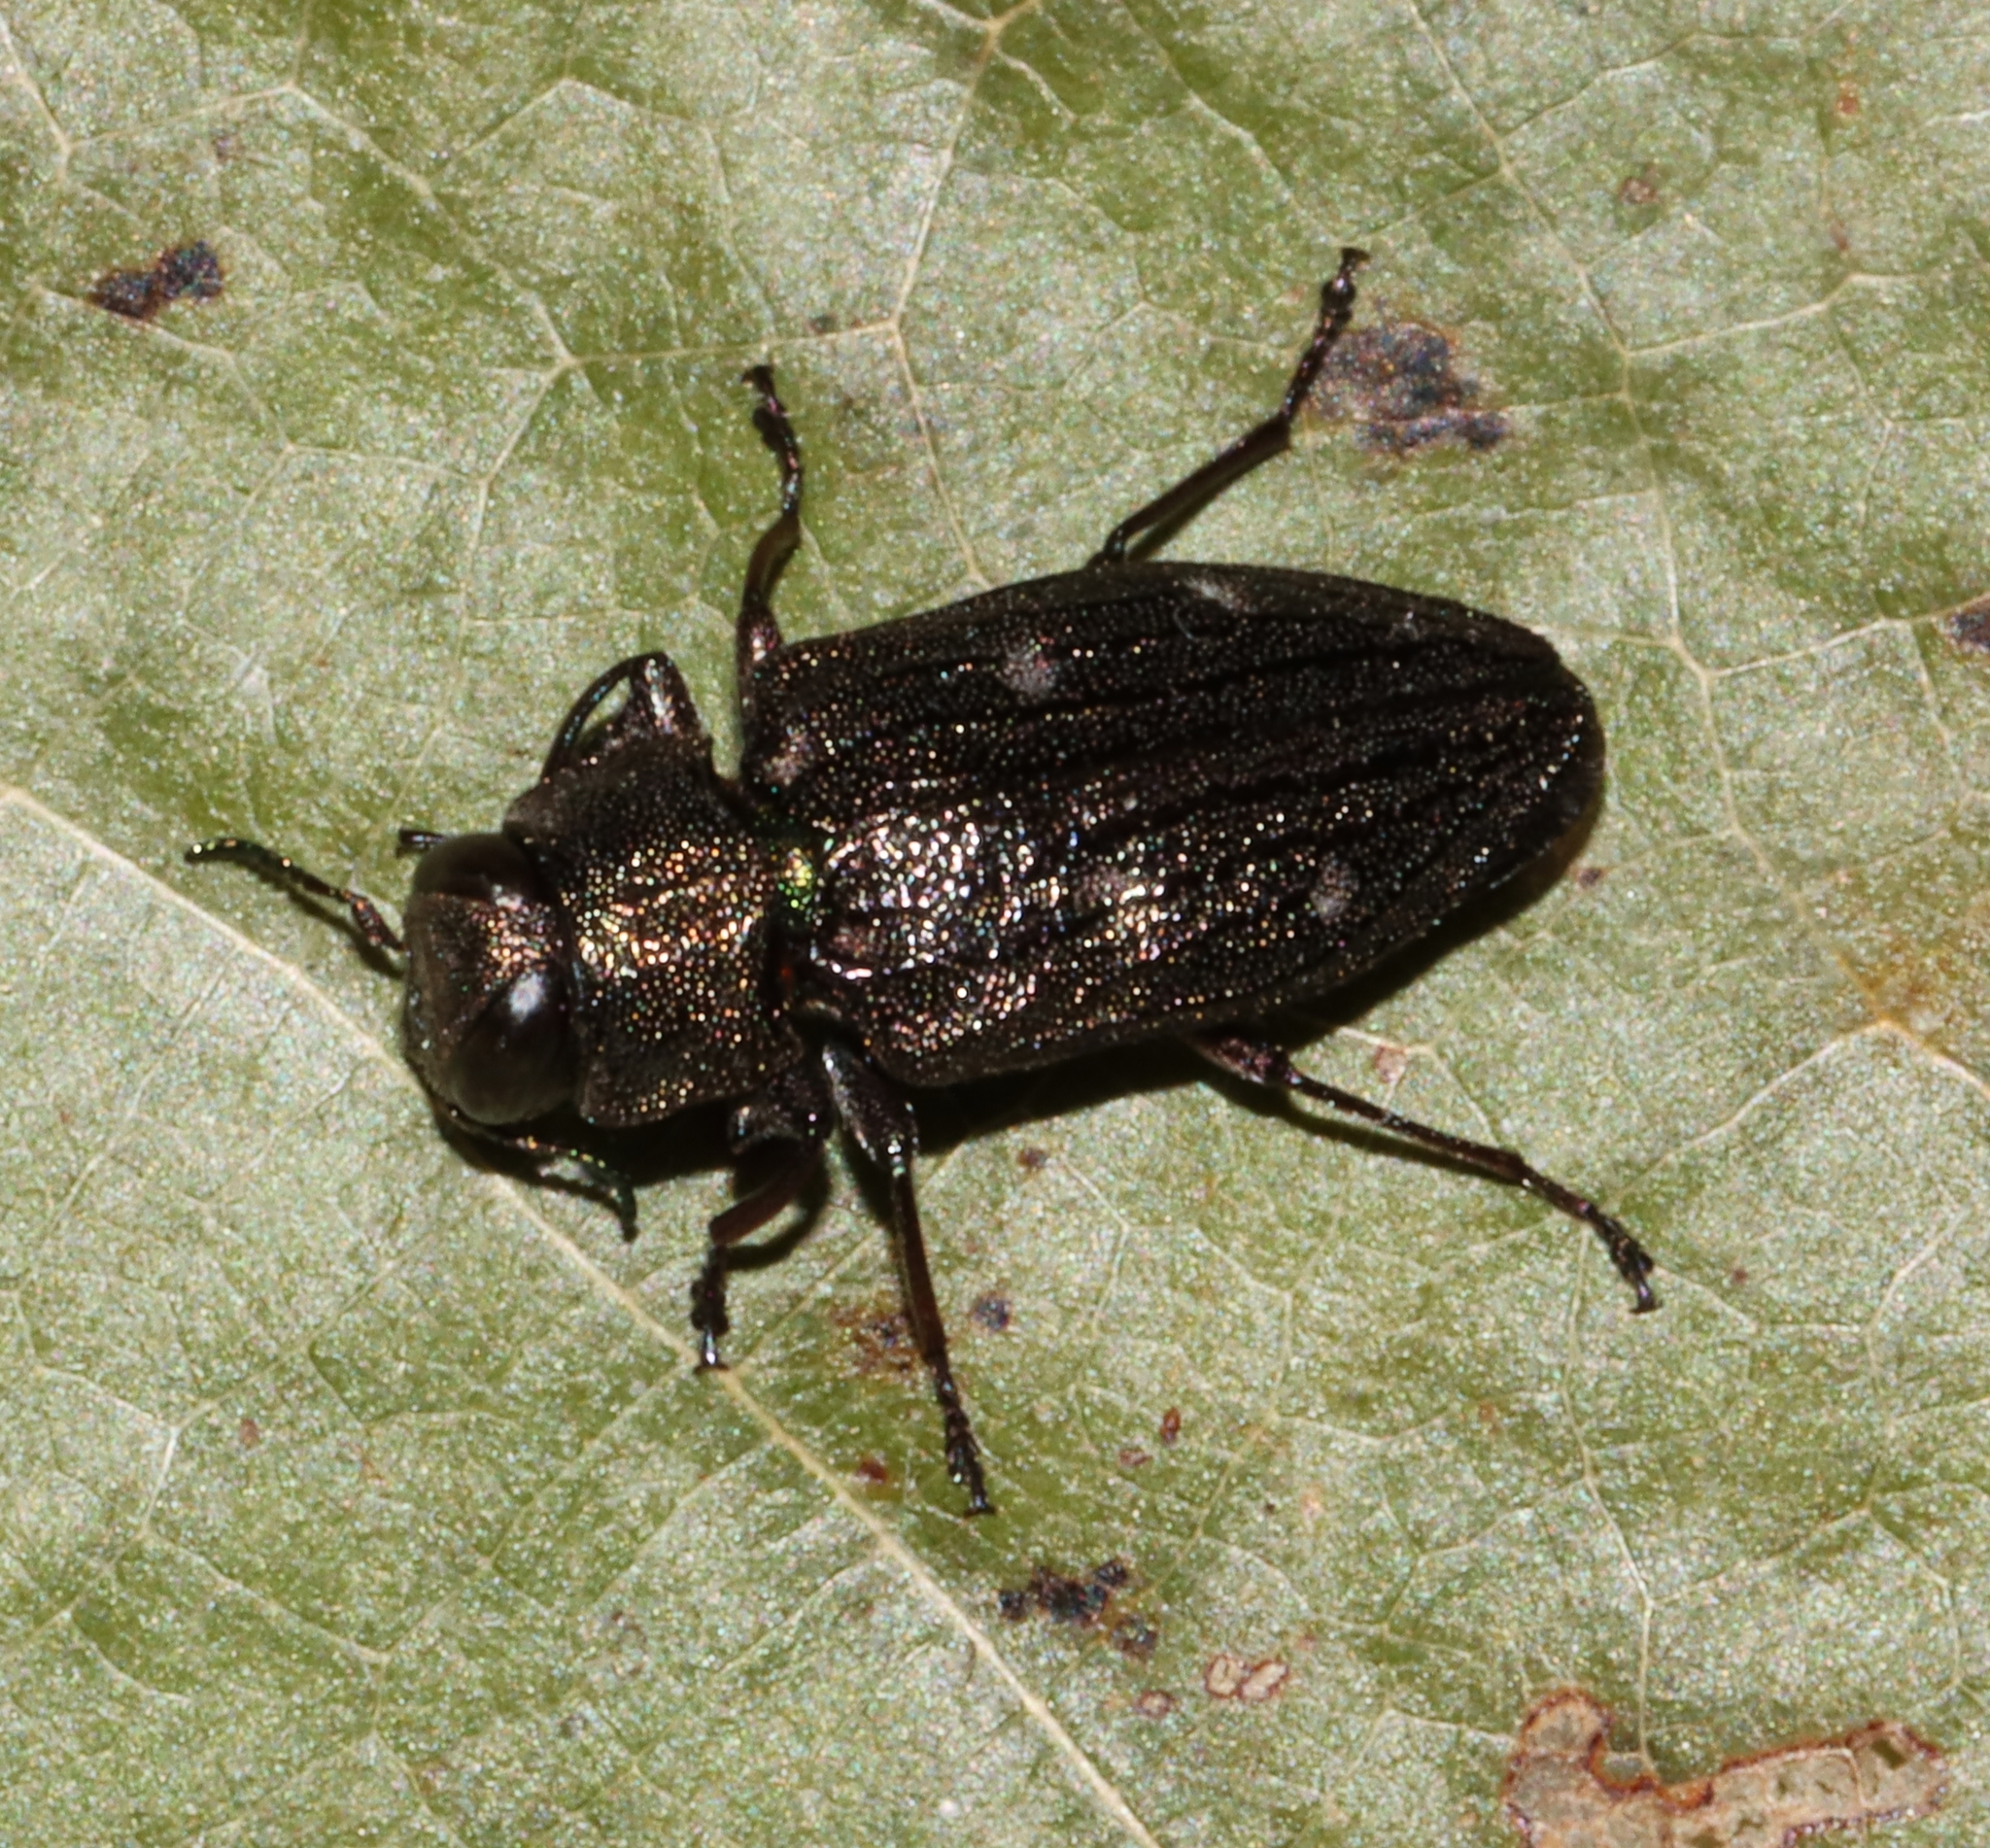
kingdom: Animalia
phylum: Arthropoda
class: Insecta
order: Coleoptera
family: Buprestidae
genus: Chrysobothris
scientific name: Chrysobothris sexsignata
